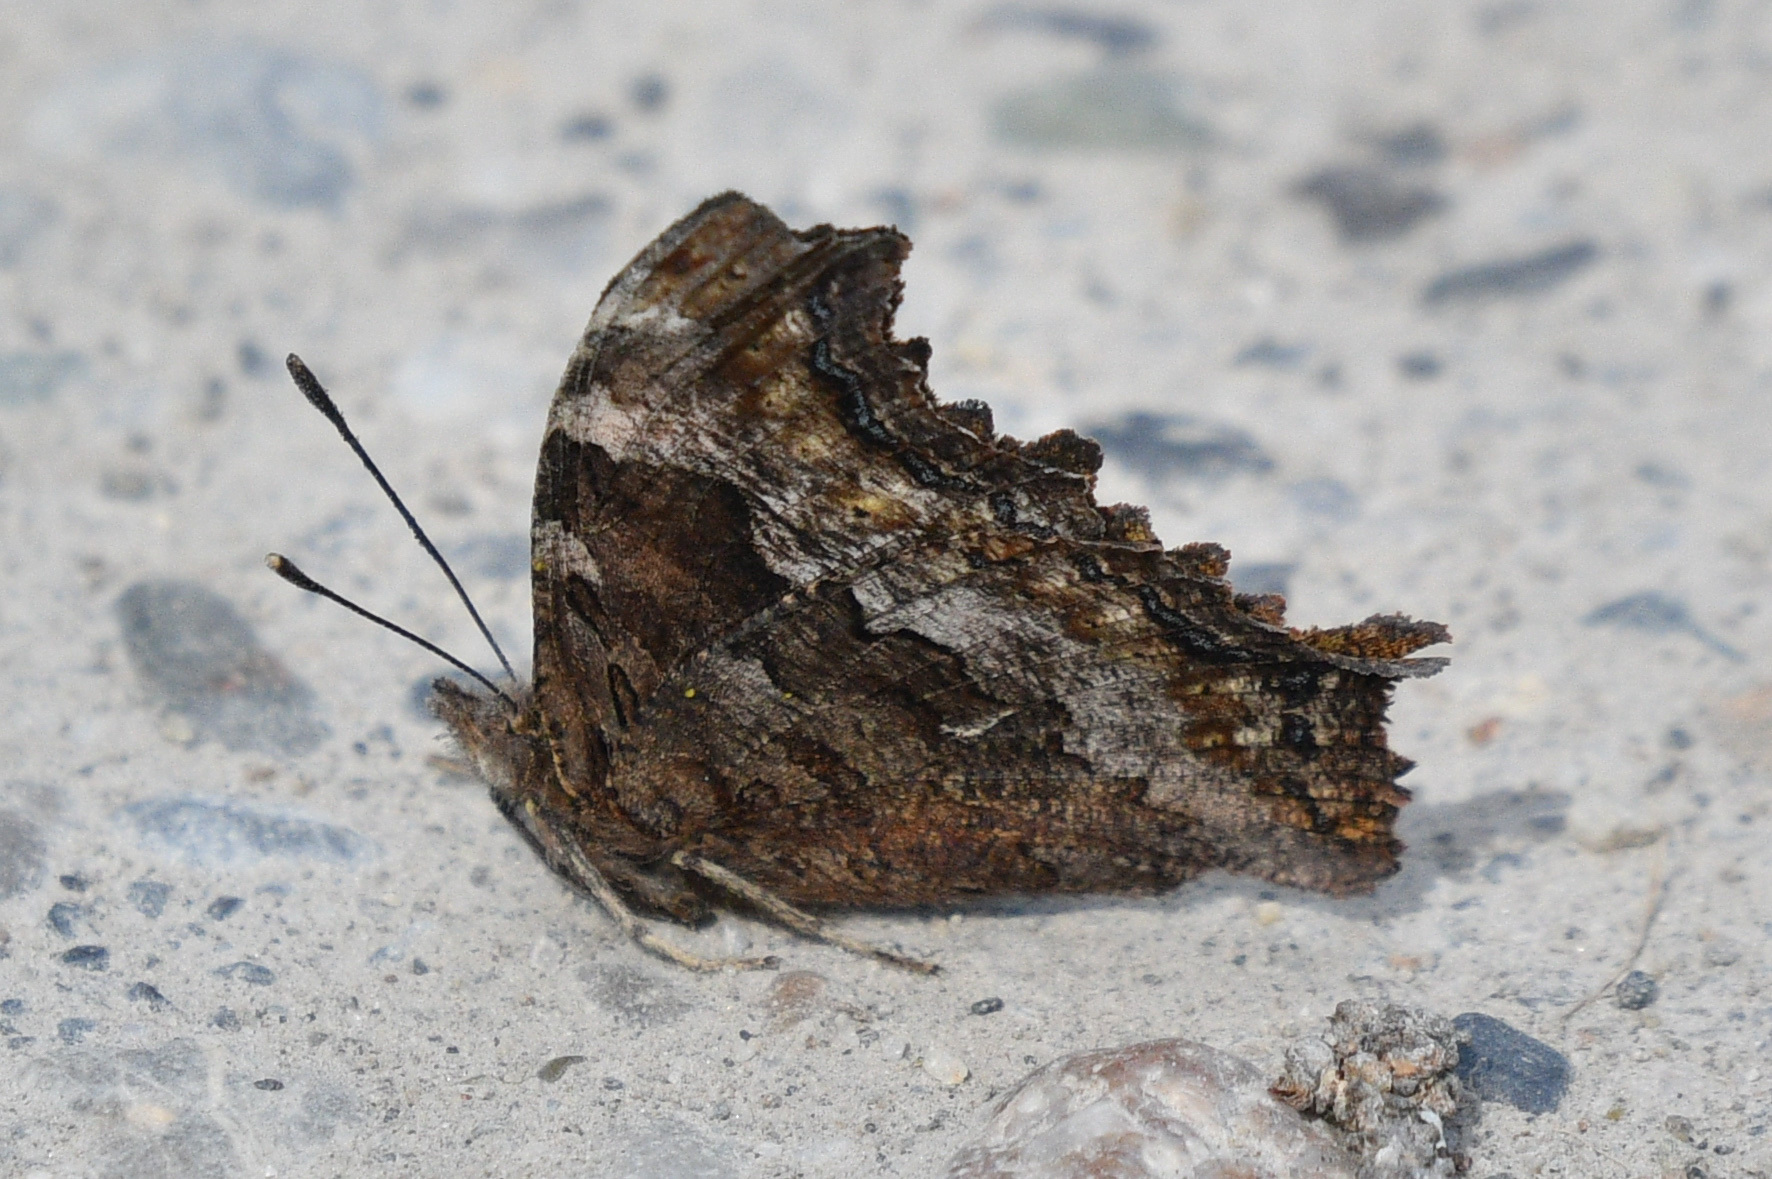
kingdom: Animalia
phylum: Arthropoda
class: Insecta
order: Lepidoptera
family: Nymphalidae
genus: Polygonia
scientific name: Polygonia vaualbum
